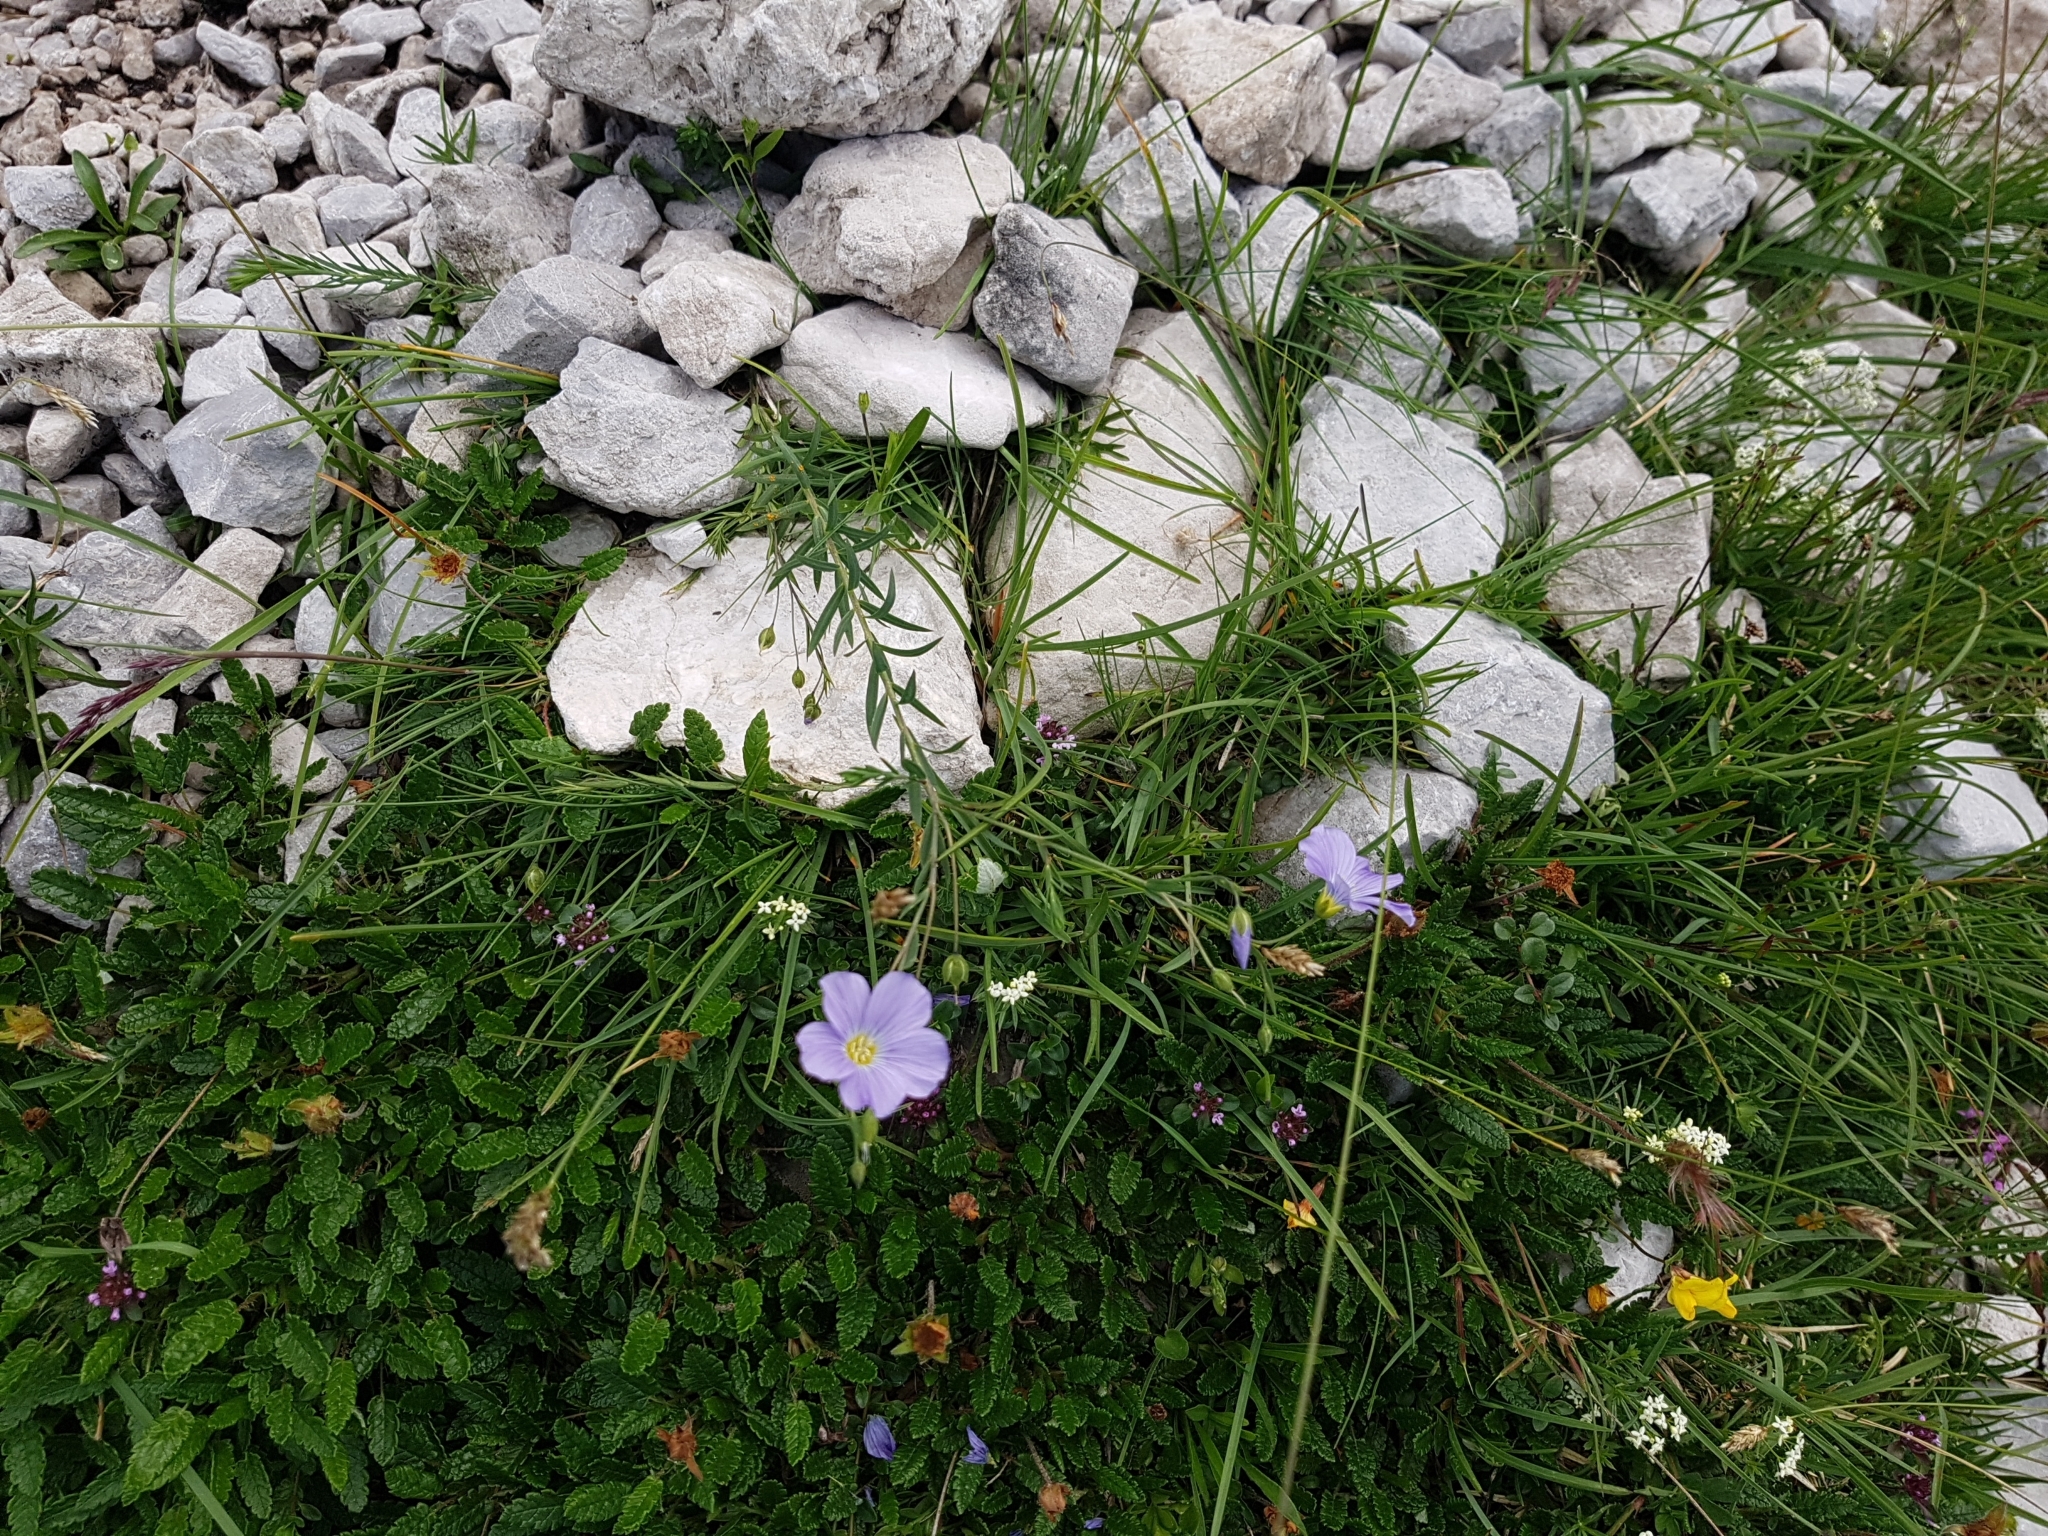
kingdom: Plantae
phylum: Tracheophyta
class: Magnoliopsida
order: Malpighiales
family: Linaceae
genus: Linum
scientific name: Linum alpinum
